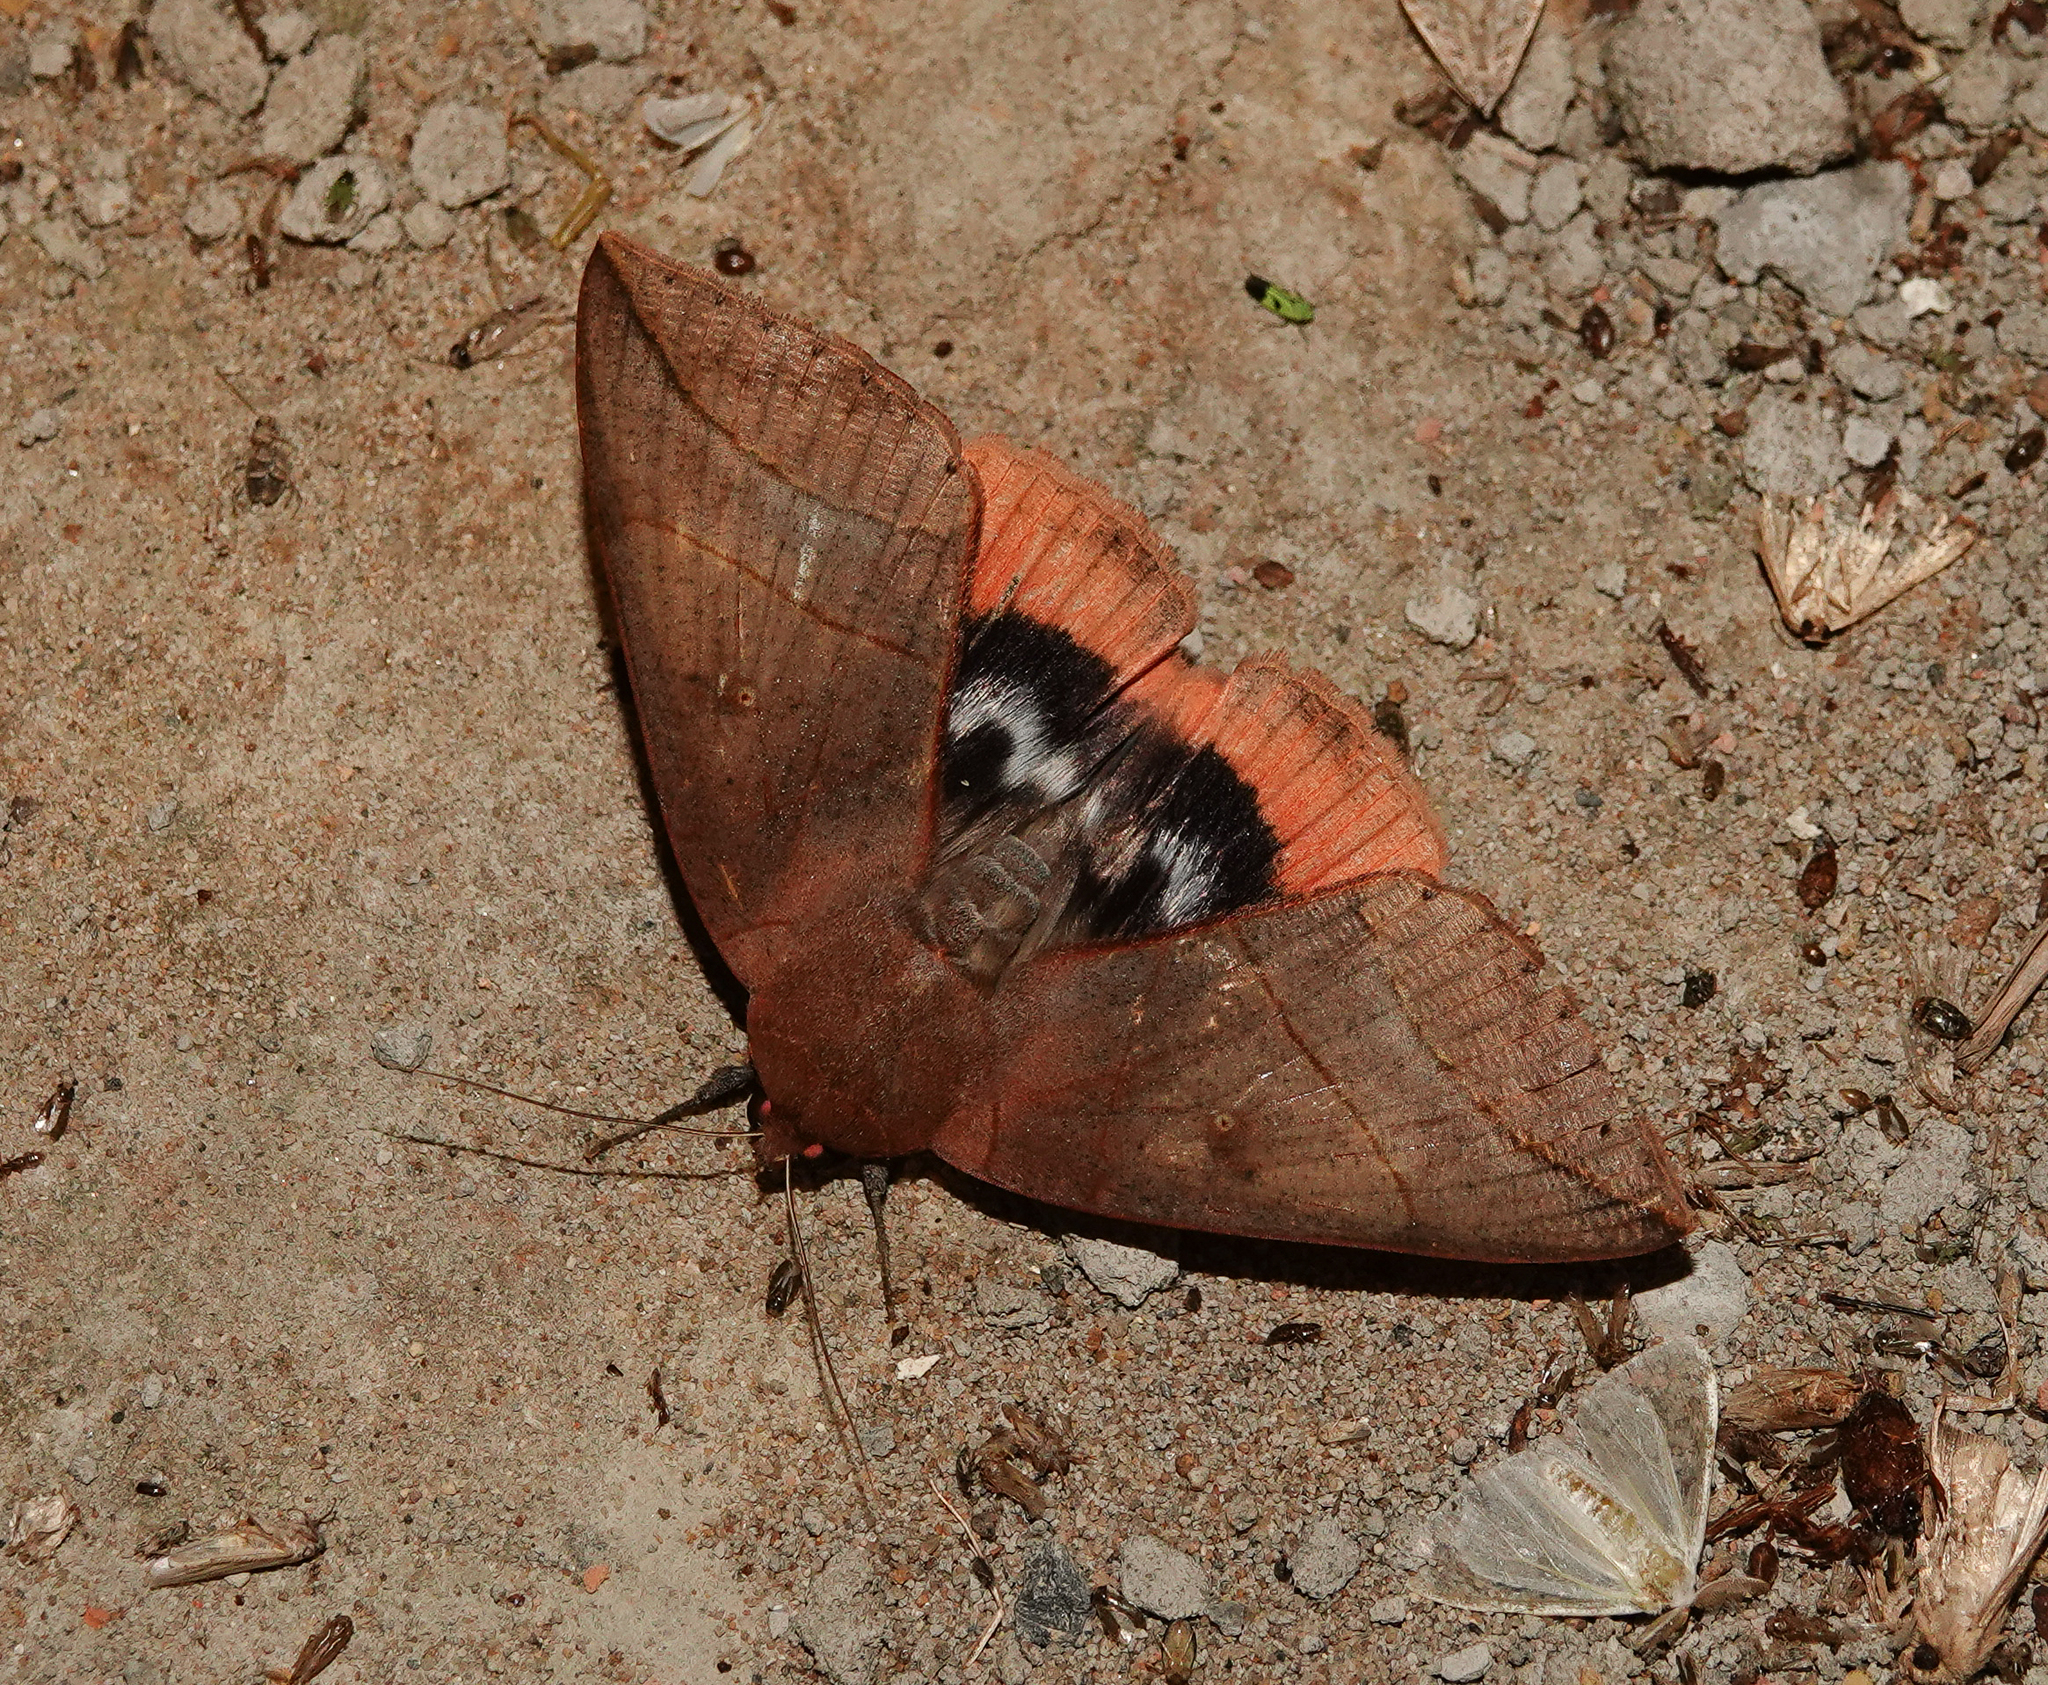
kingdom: Animalia
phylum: Arthropoda
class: Insecta
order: Lepidoptera
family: Erebidae
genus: Thyas
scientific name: Thyas juno
